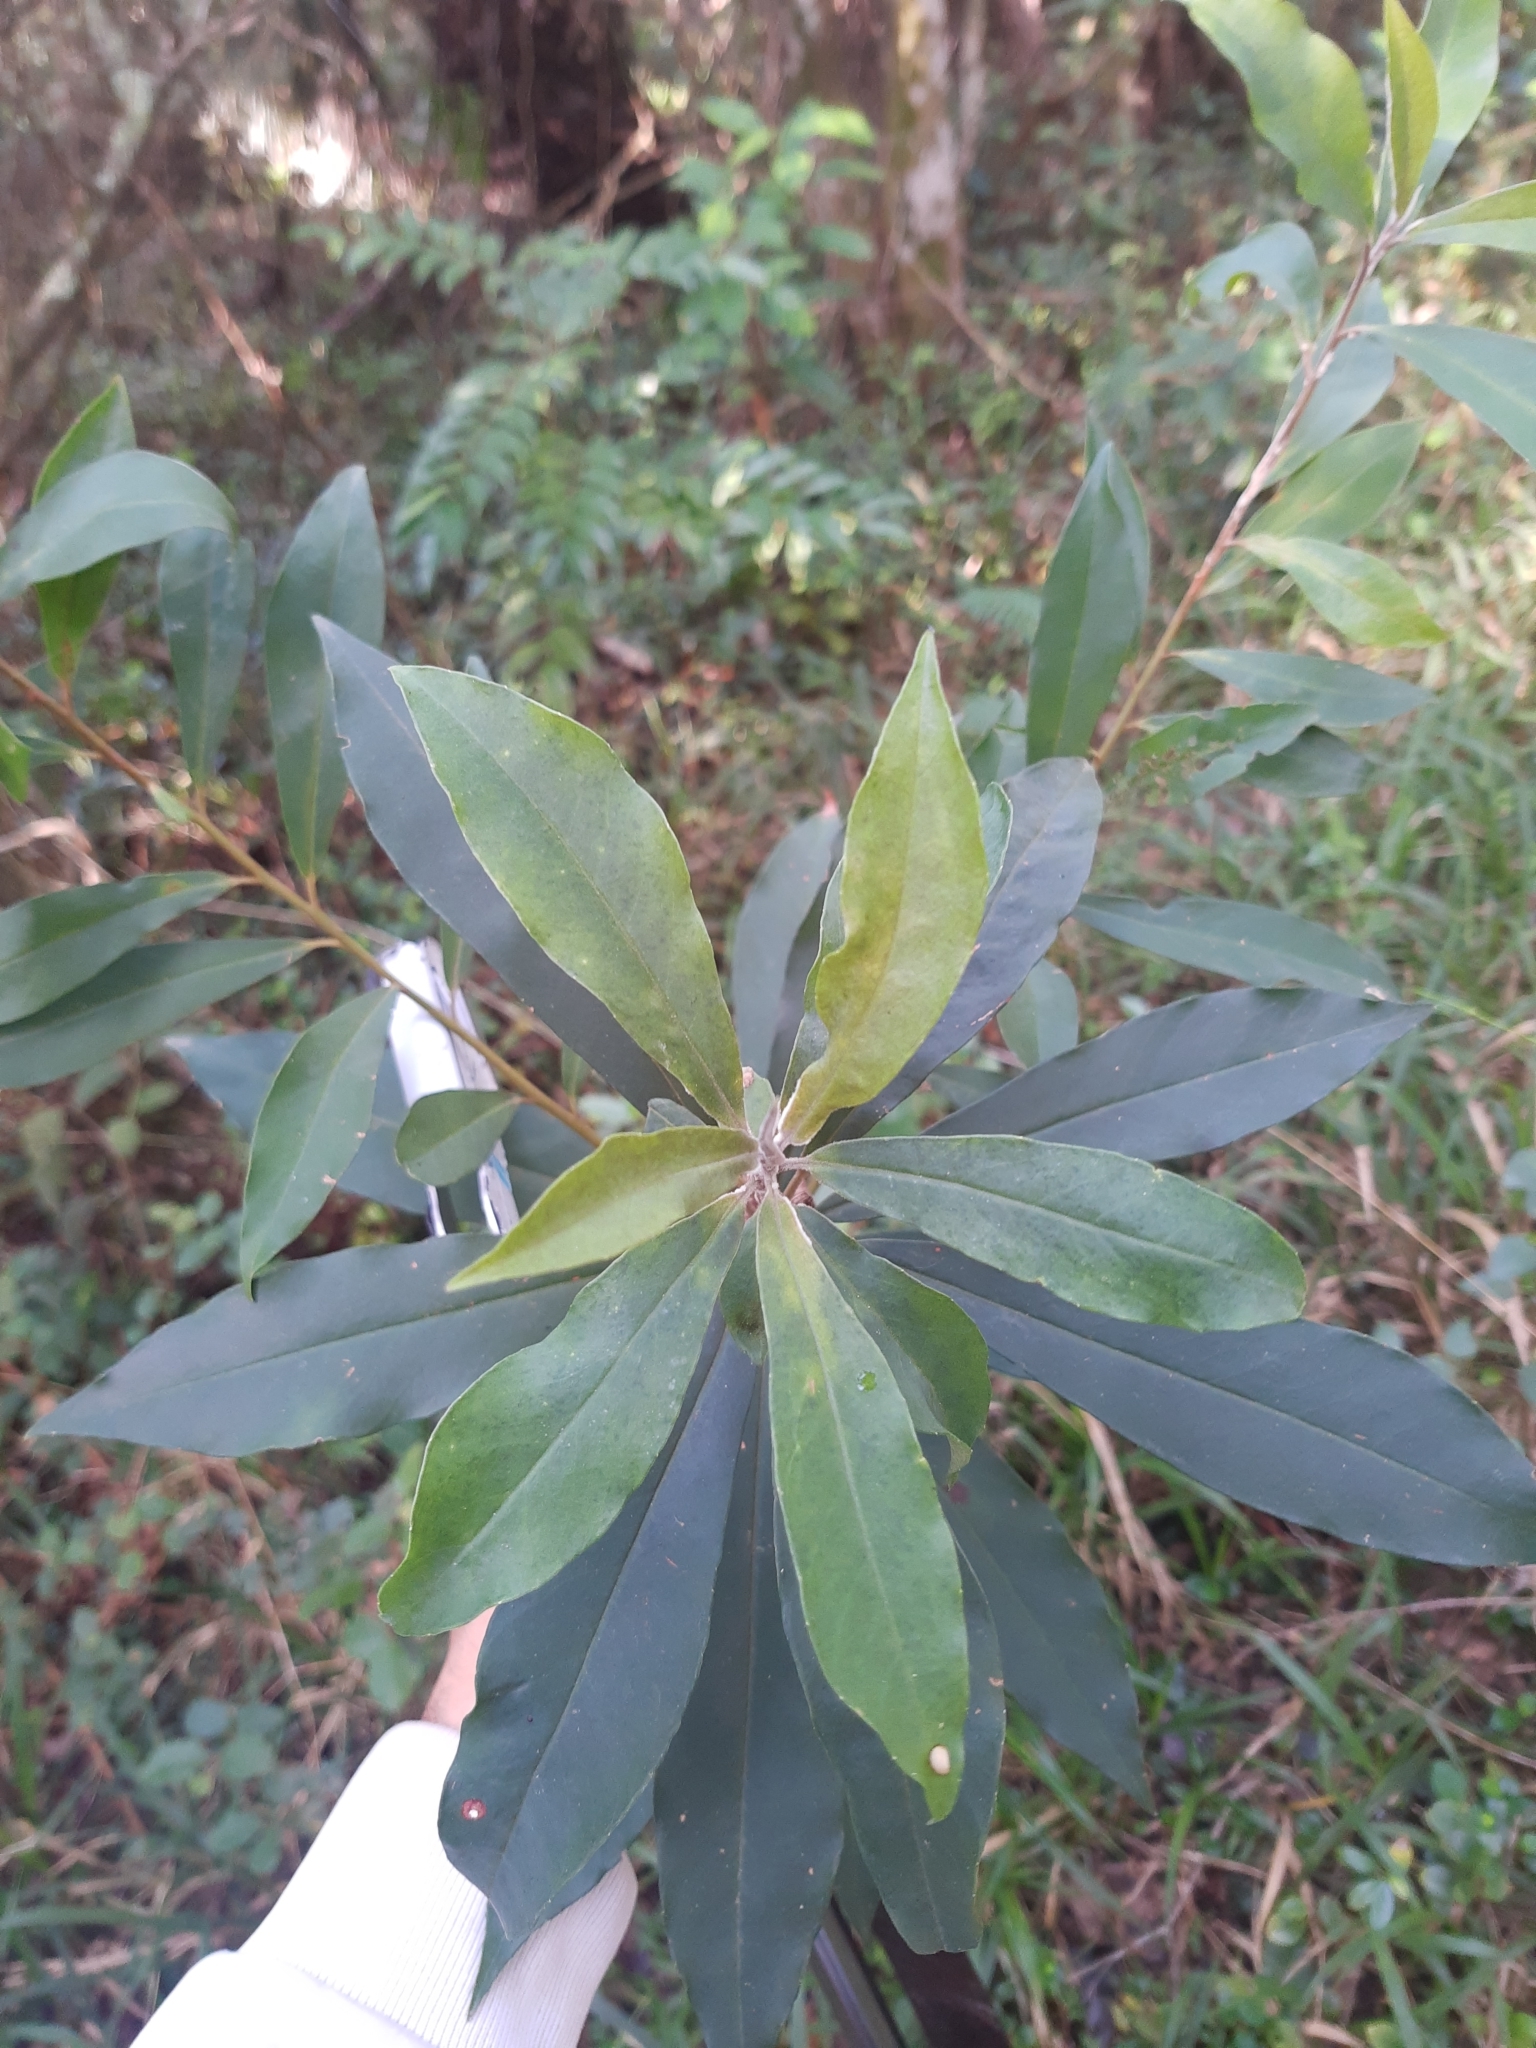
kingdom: Plantae
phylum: Tracheophyta
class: Magnoliopsida
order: Ericales
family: Primulaceae
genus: Myrsine
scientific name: Myrsine coriacea
